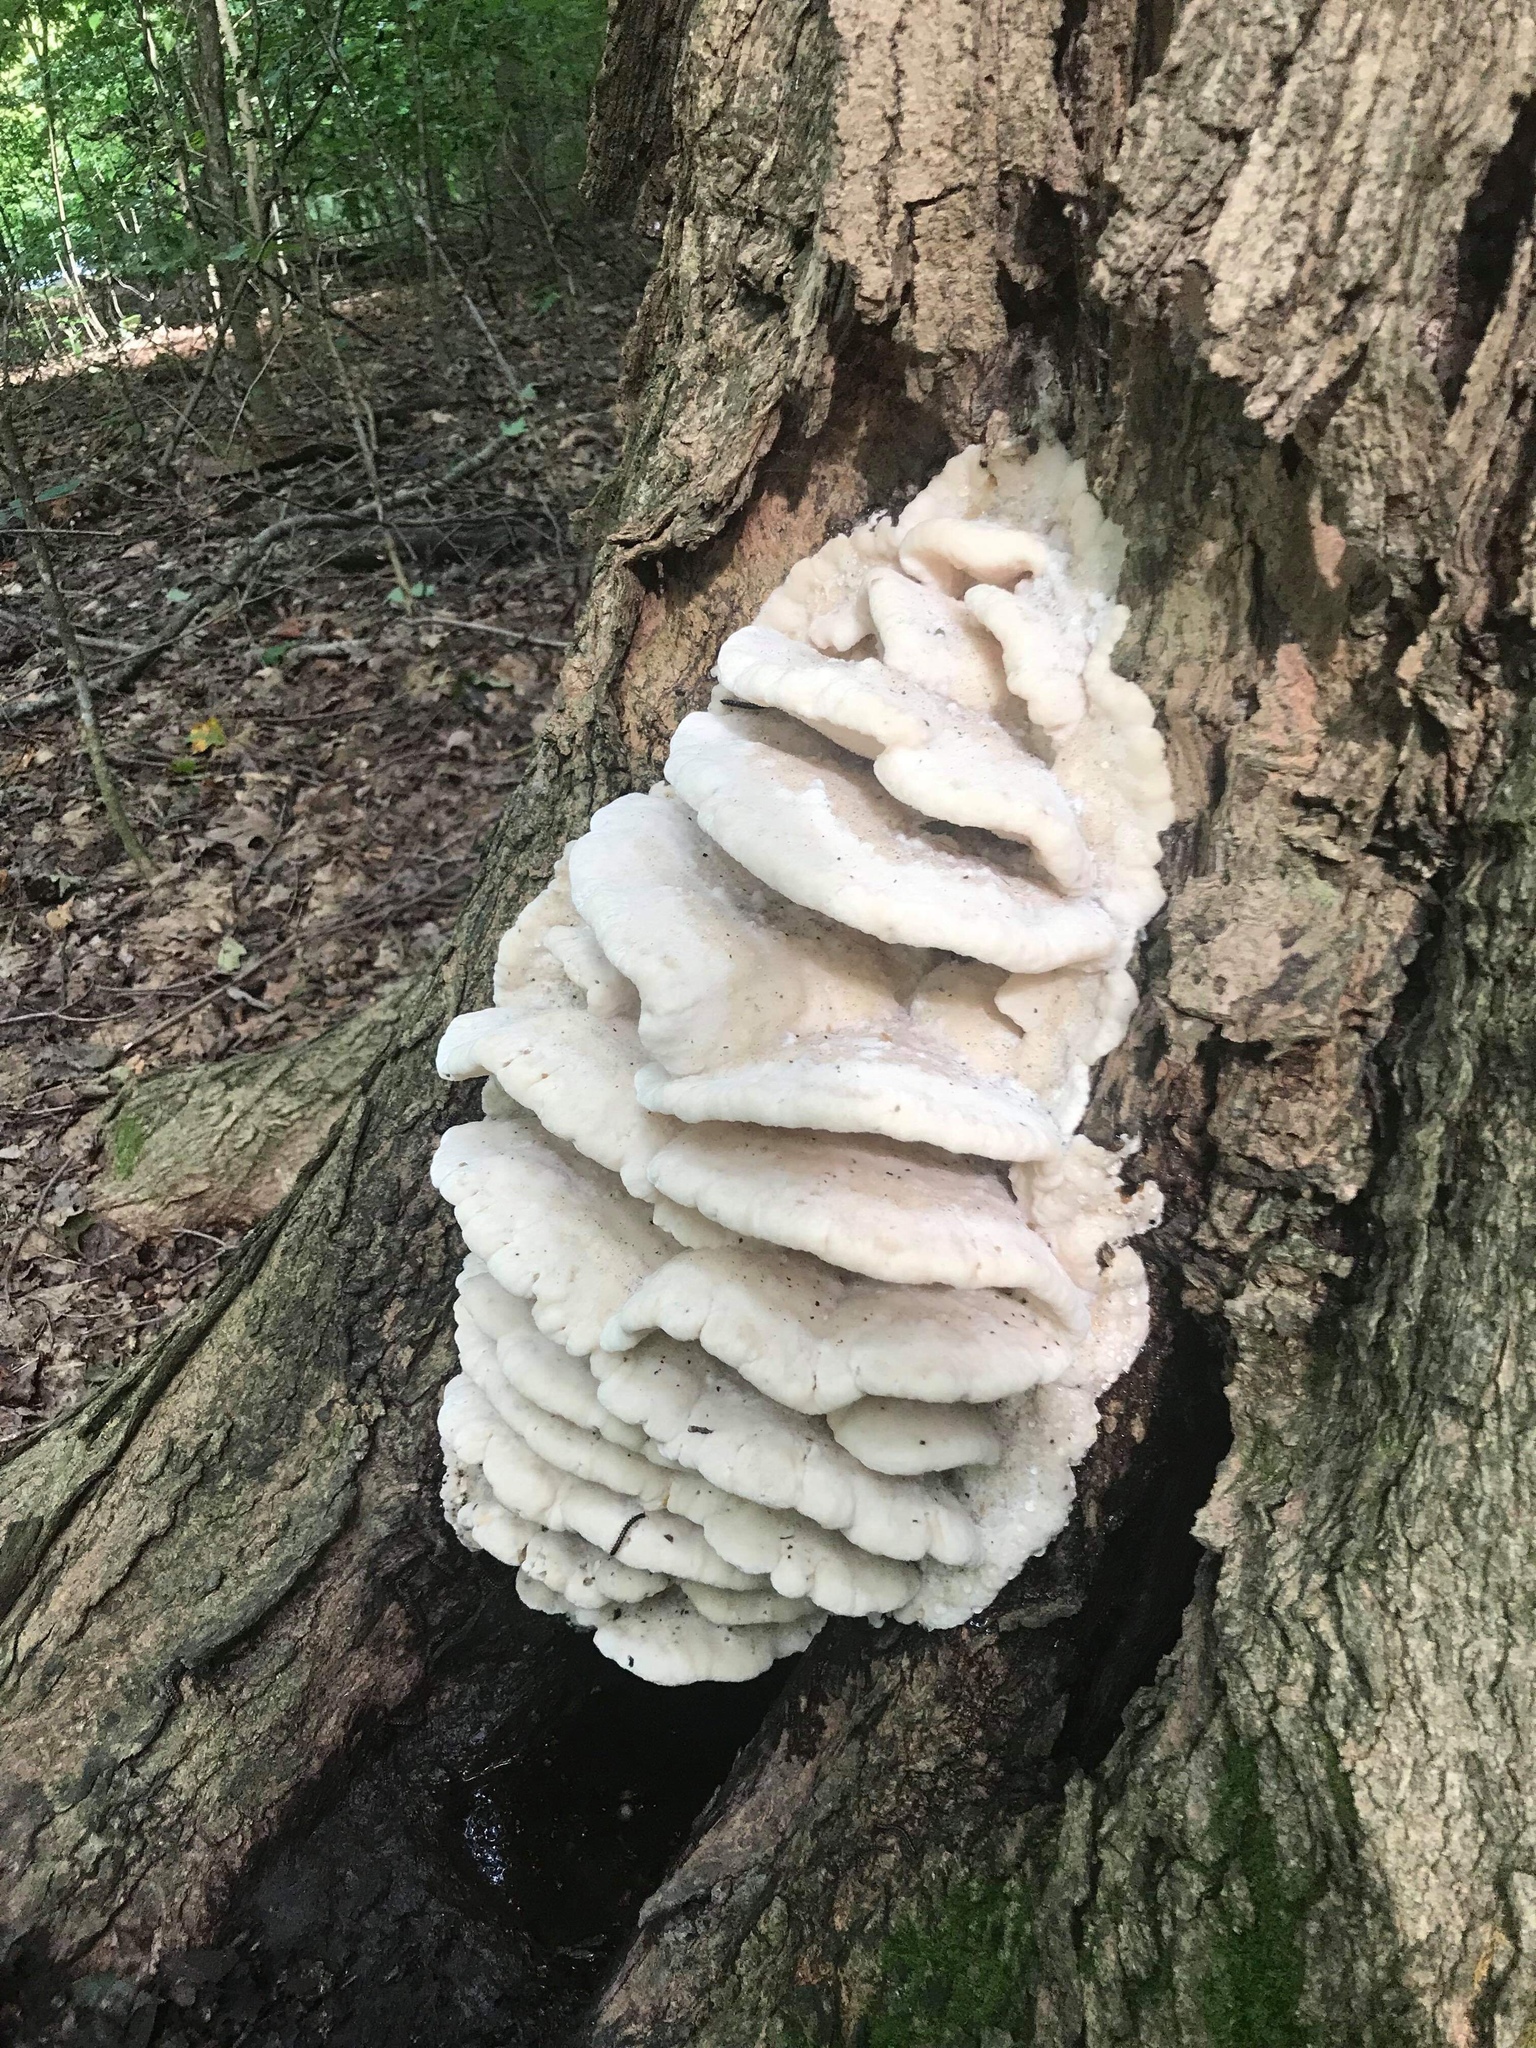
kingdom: Fungi
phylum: Basidiomycota
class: Agaricomycetes
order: Polyporales
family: Meruliaceae
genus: Climacodon
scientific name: Climacodon septentrionalis
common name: Northern tooth
